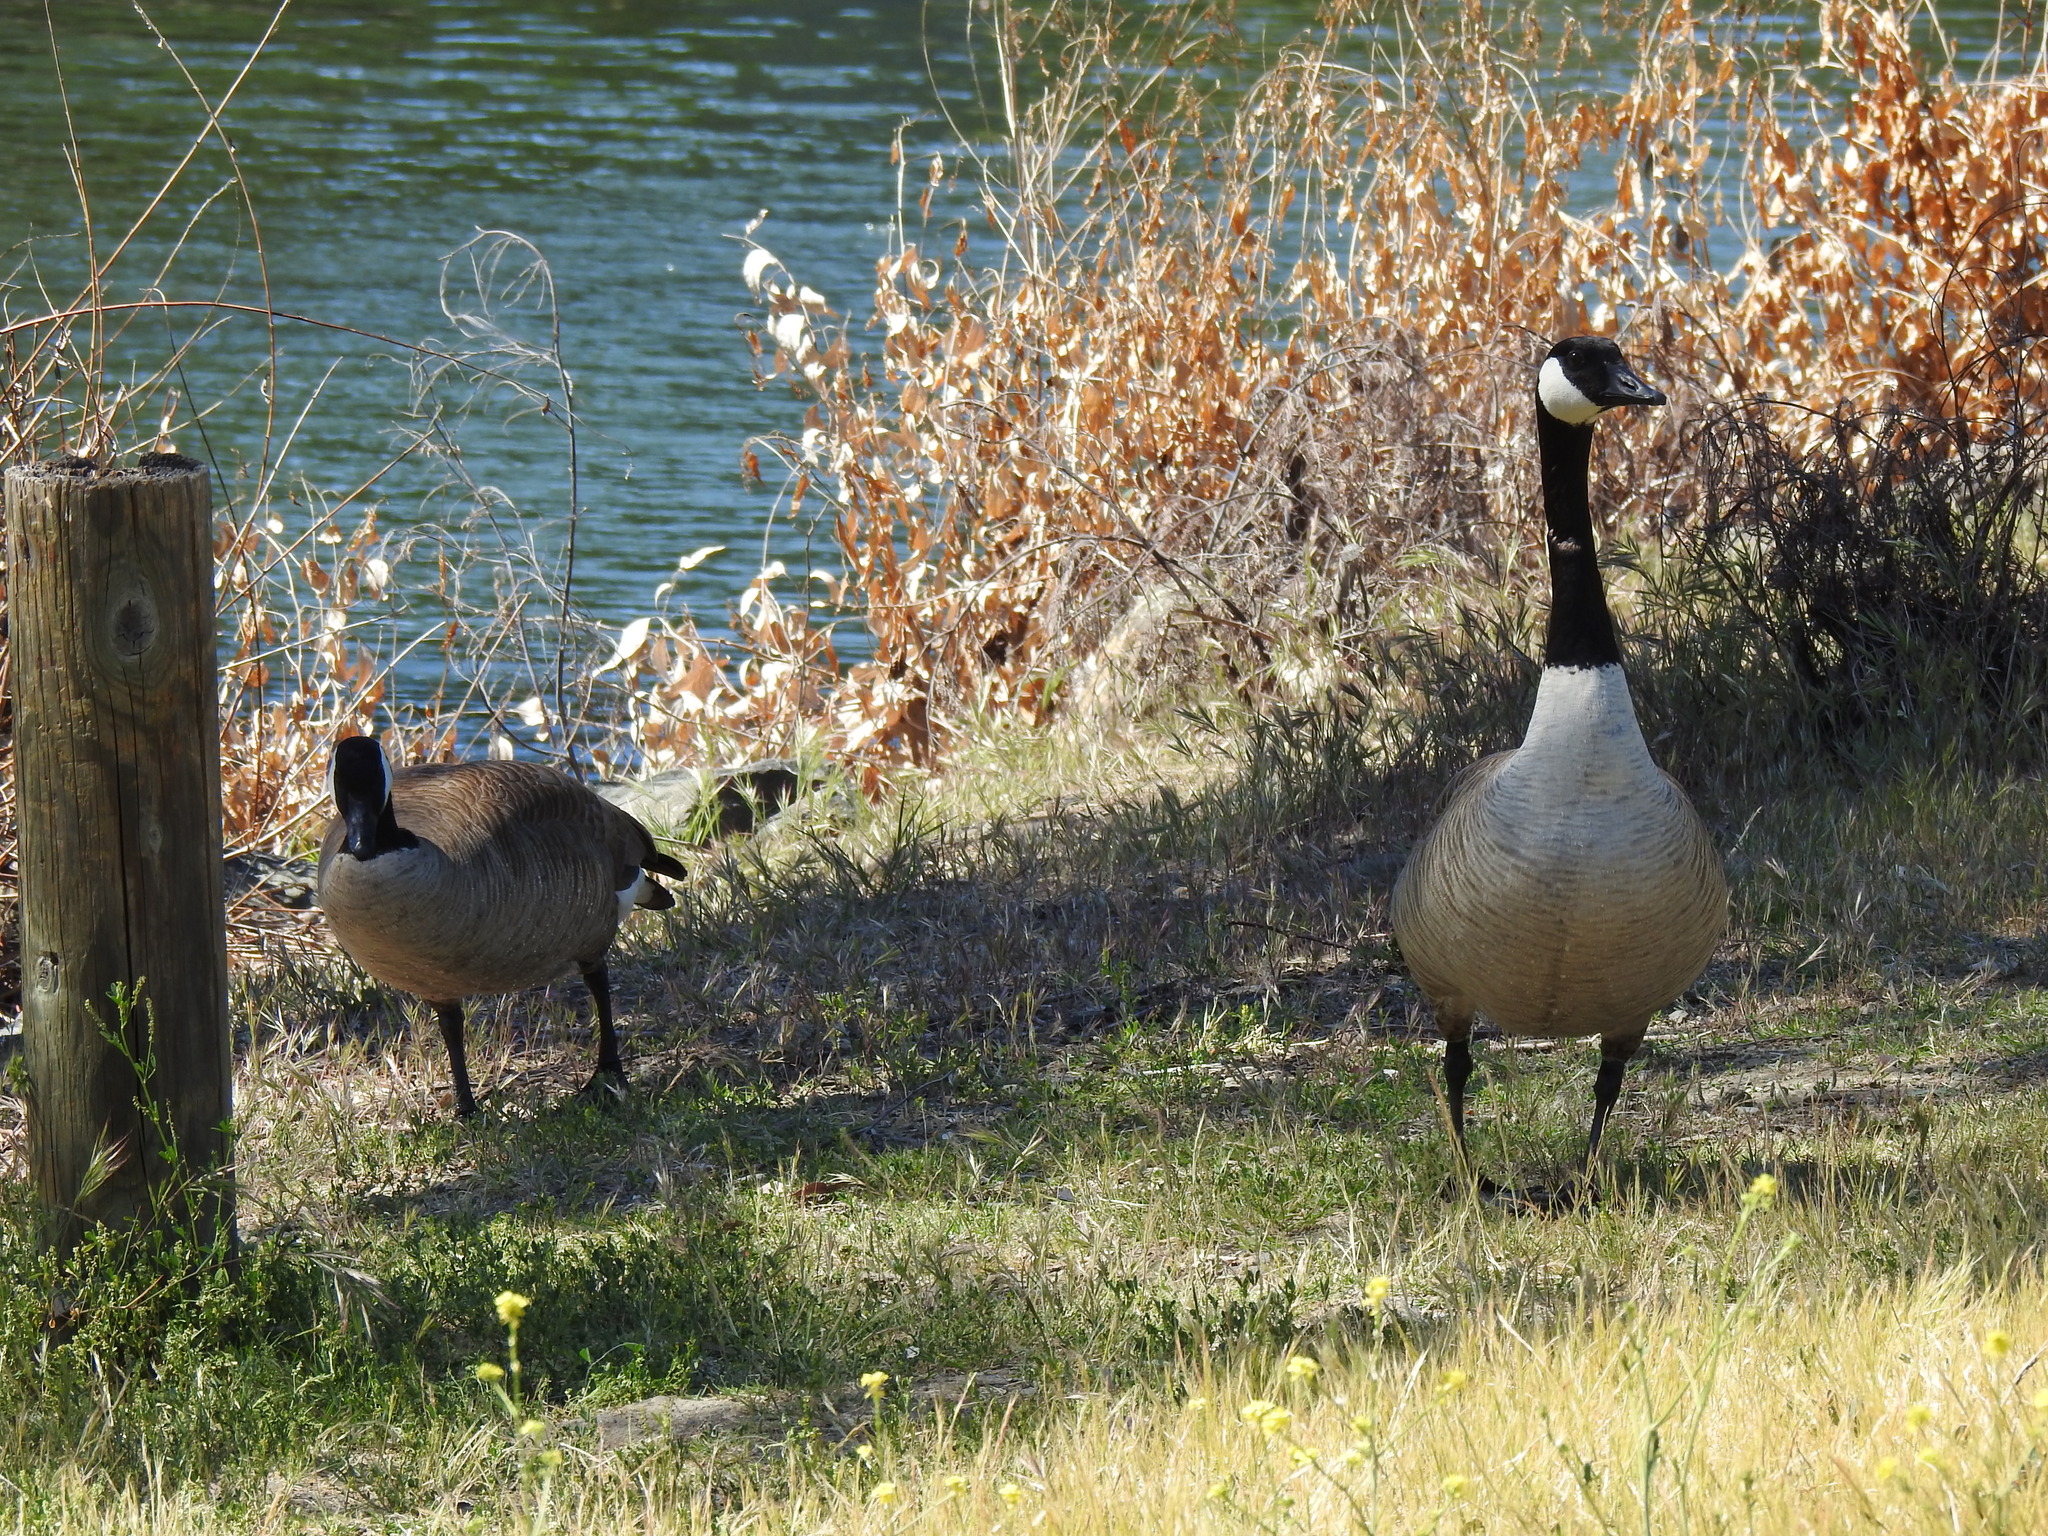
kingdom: Animalia
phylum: Chordata
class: Aves
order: Anseriformes
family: Anatidae
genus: Branta
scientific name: Branta canadensis
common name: Canada goose
